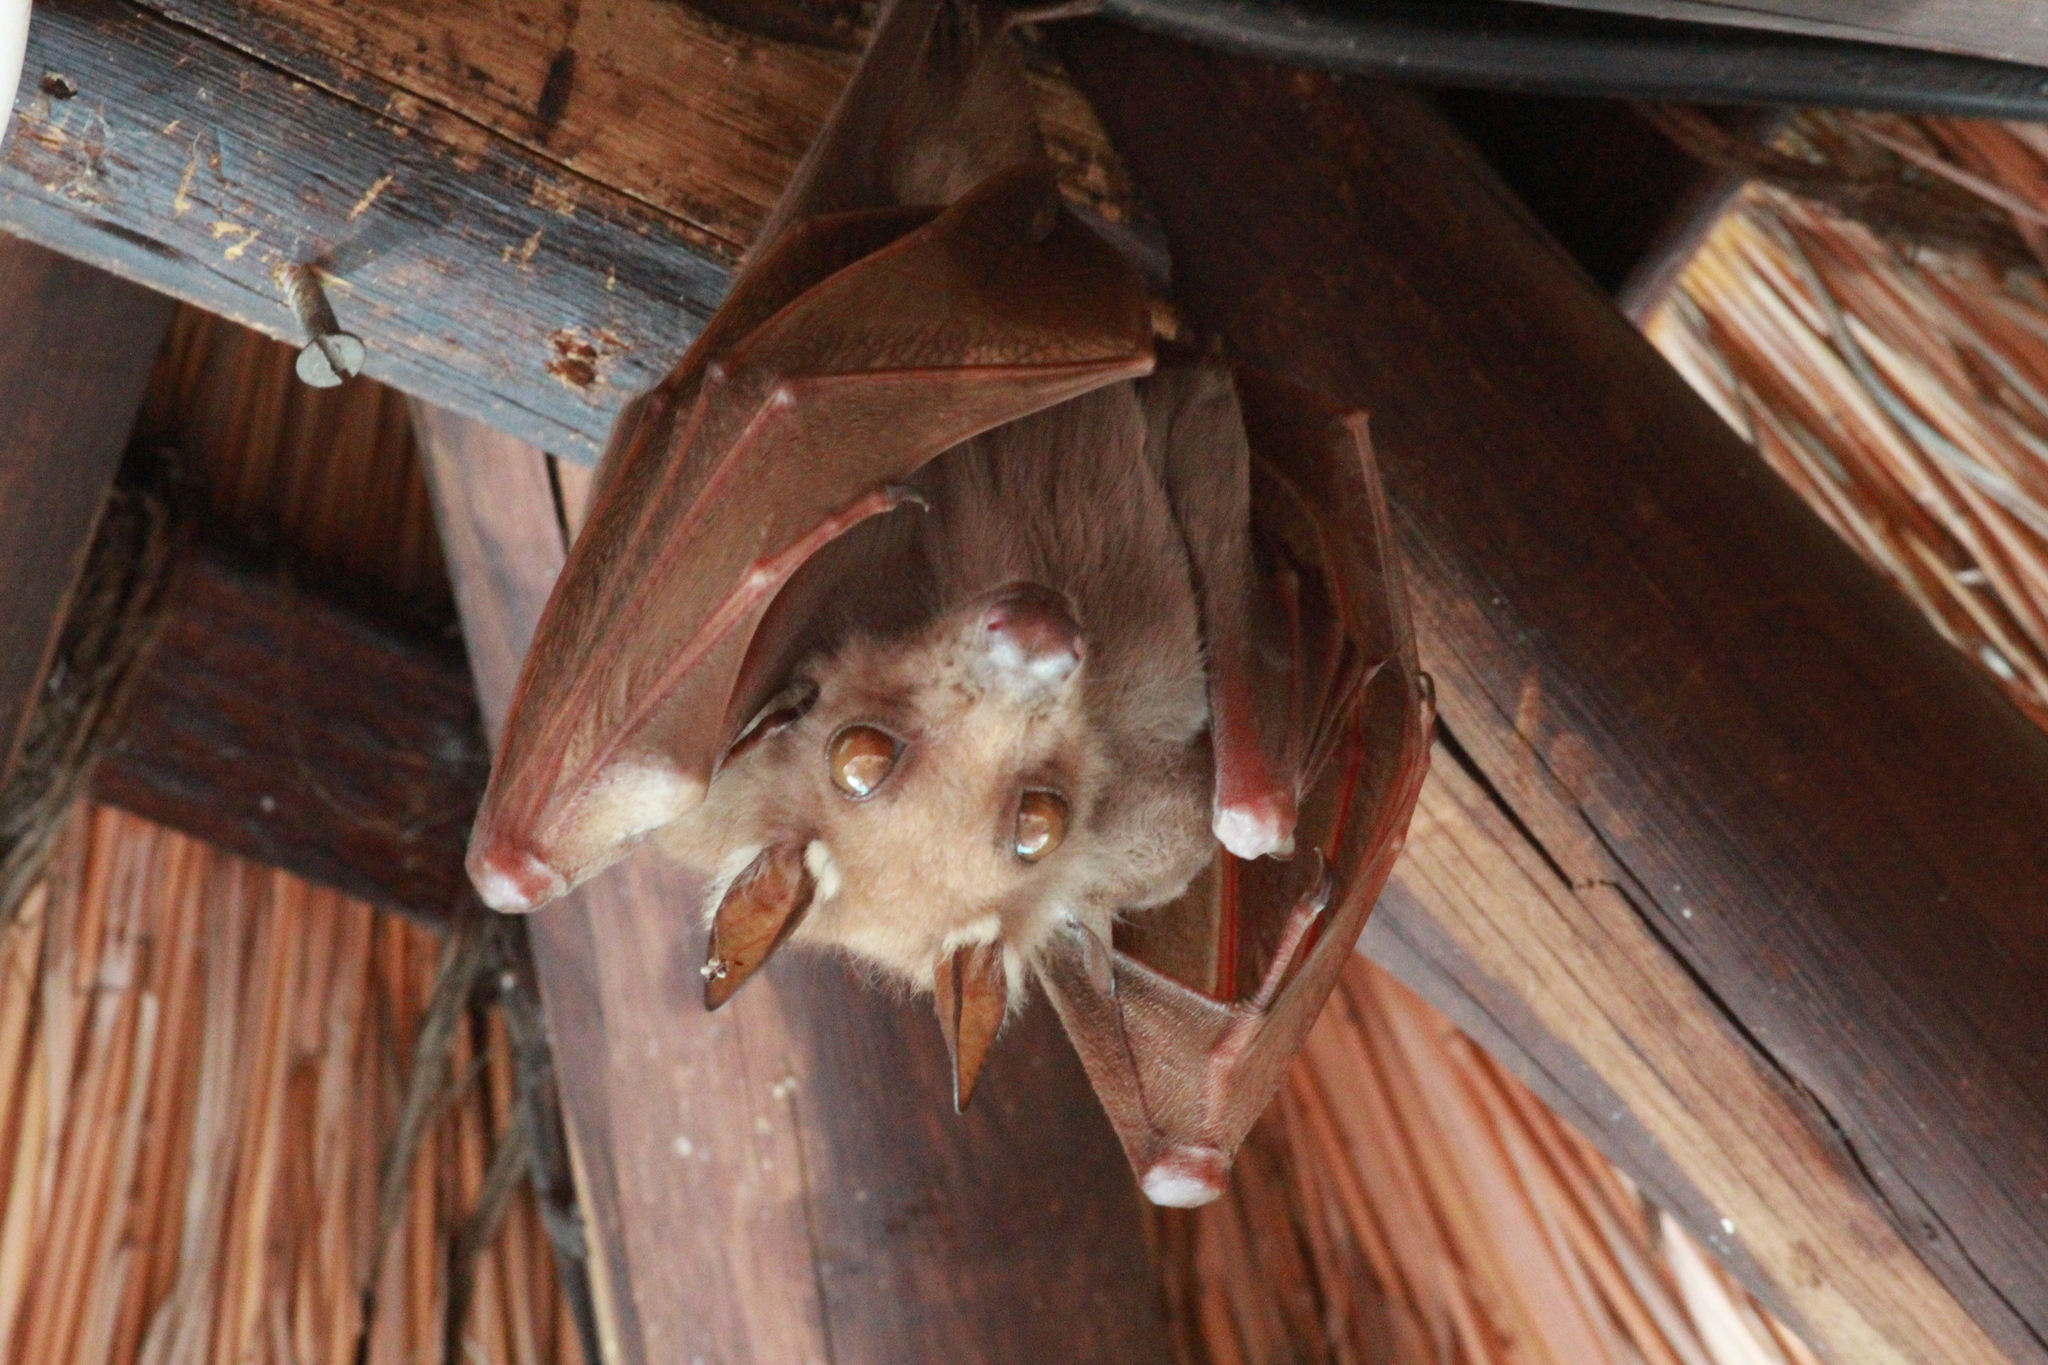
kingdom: Animalia
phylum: Chordata
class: Mammalia
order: Chiroptera
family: Pteropodidae
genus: Epomophorus
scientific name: Epomophorus wahlbergi
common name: Wahlberg's epauletted fruit bat
